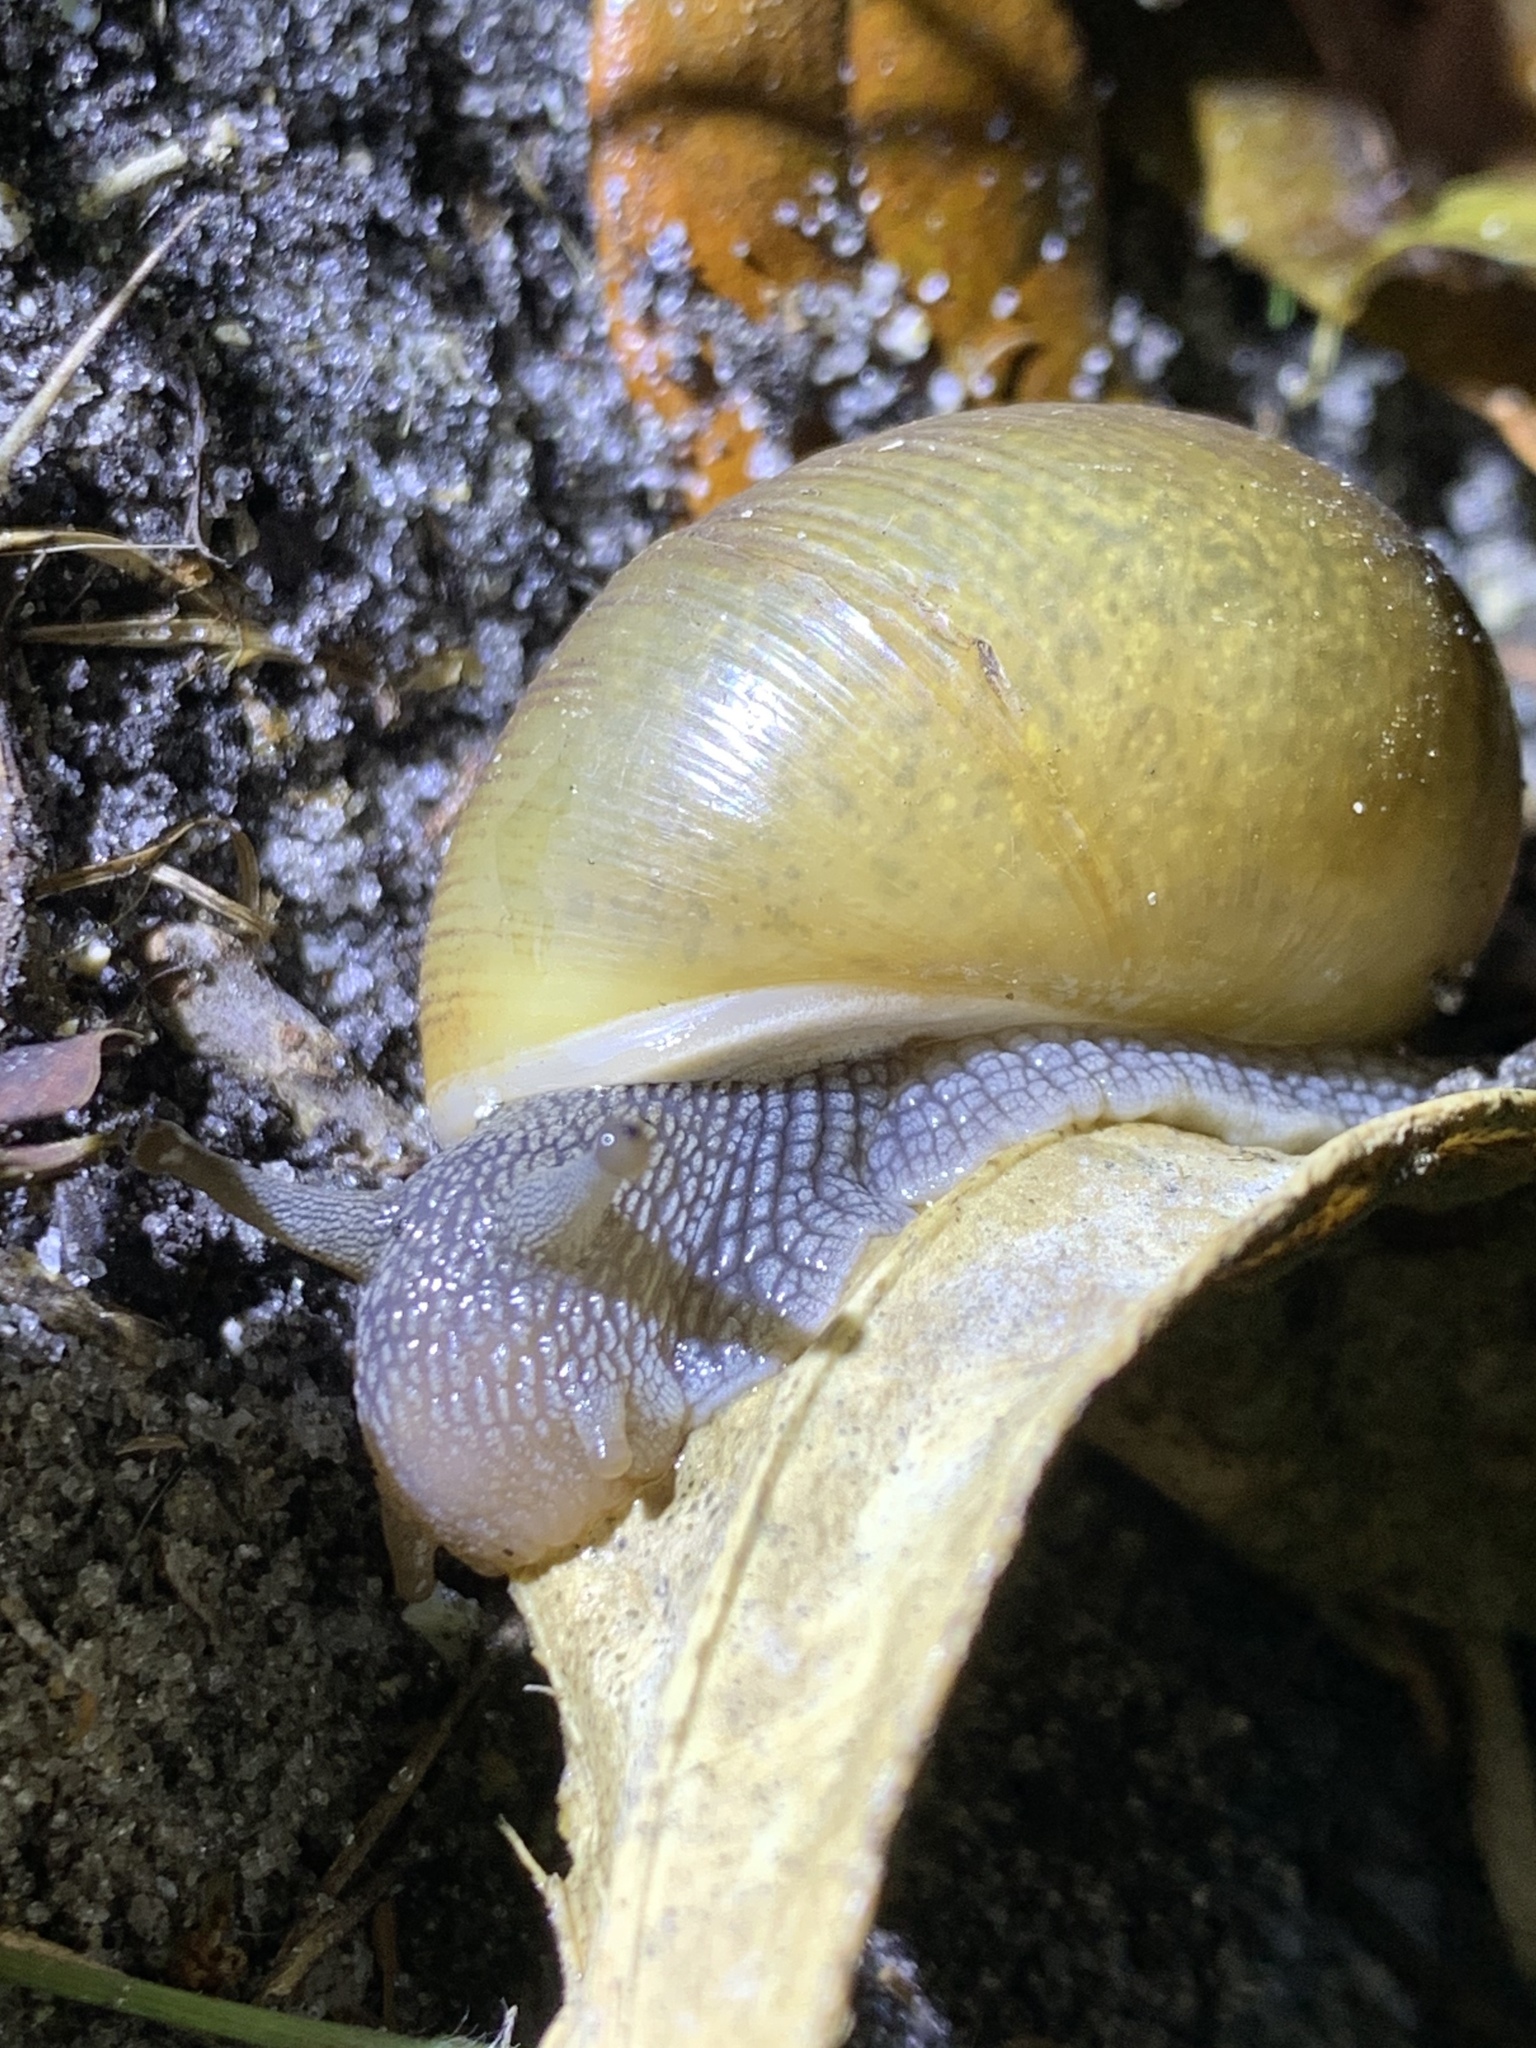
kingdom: Animalia
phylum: Mollusca
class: Gastropoda
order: Stylommatophora
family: Zachrysiidae
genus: Zachrysia
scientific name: Zachrysia provisoria
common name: Garden zachrysia
